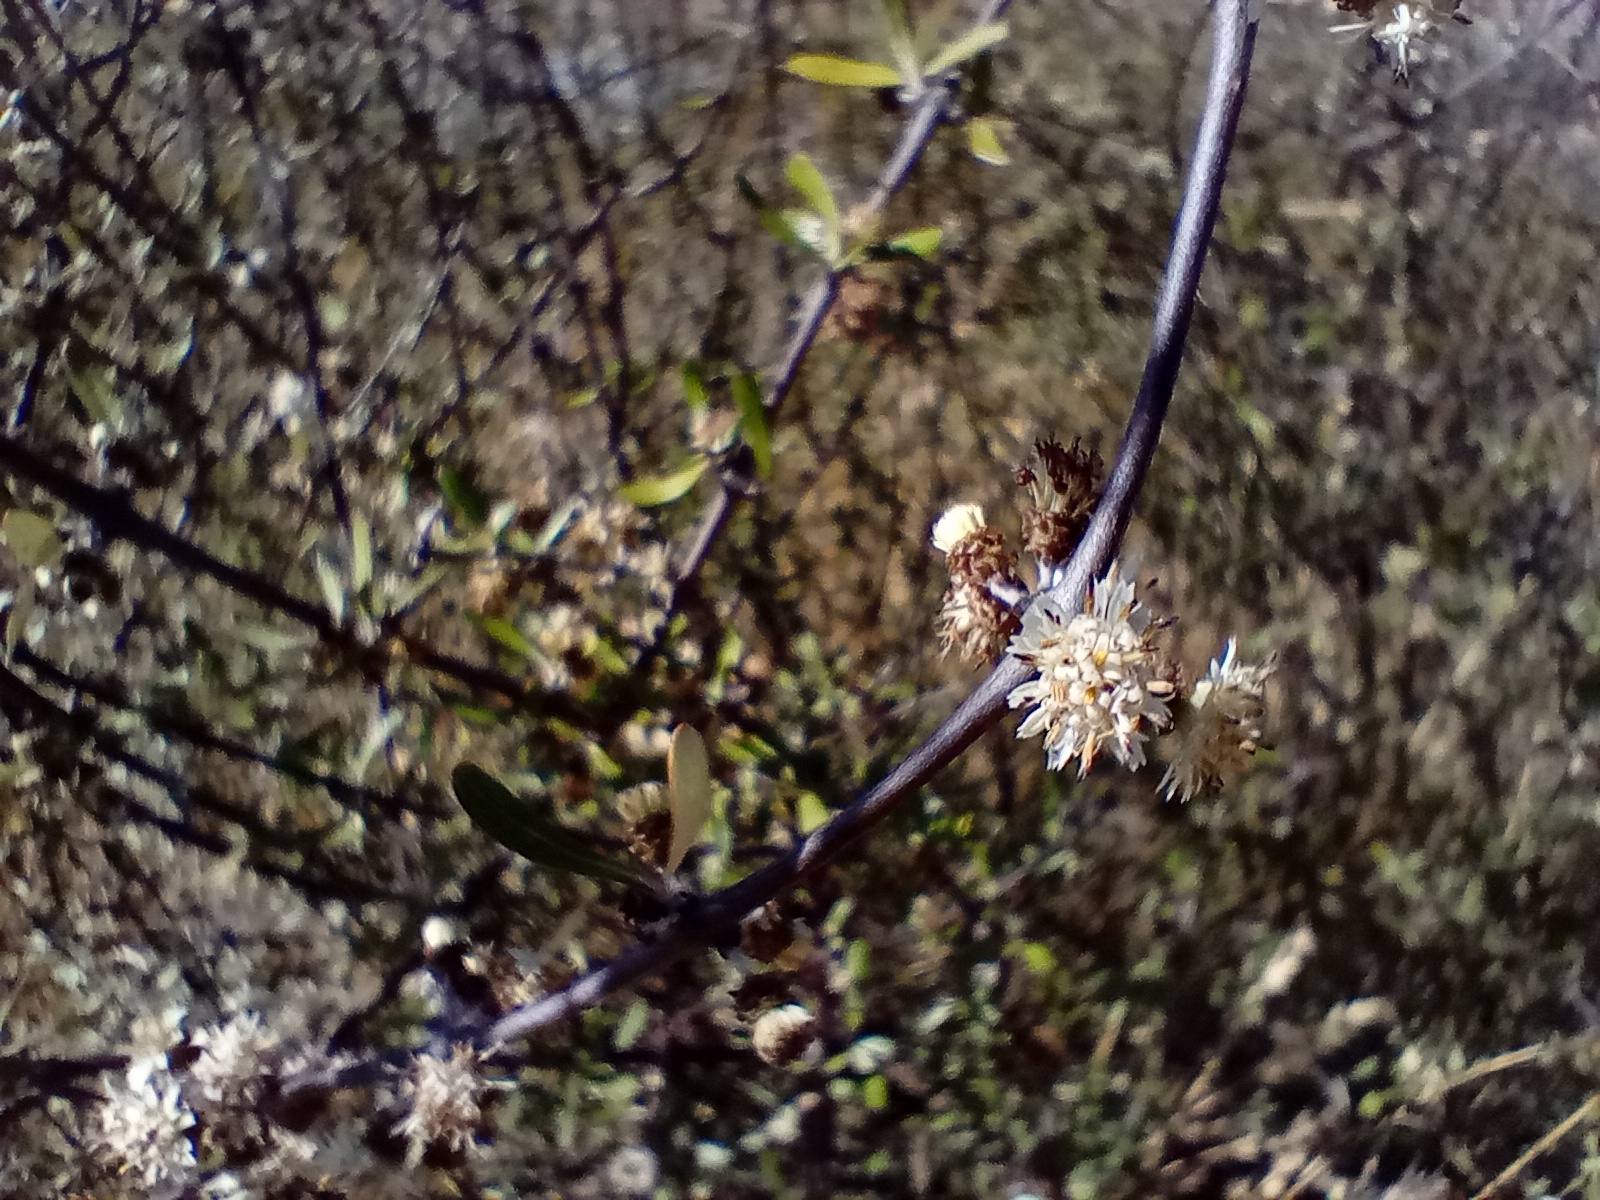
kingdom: Plantae
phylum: Tracheophyta
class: Magnoliopsida
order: Asterales
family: Asteraceae
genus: Olearia
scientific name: Olearia odorata
